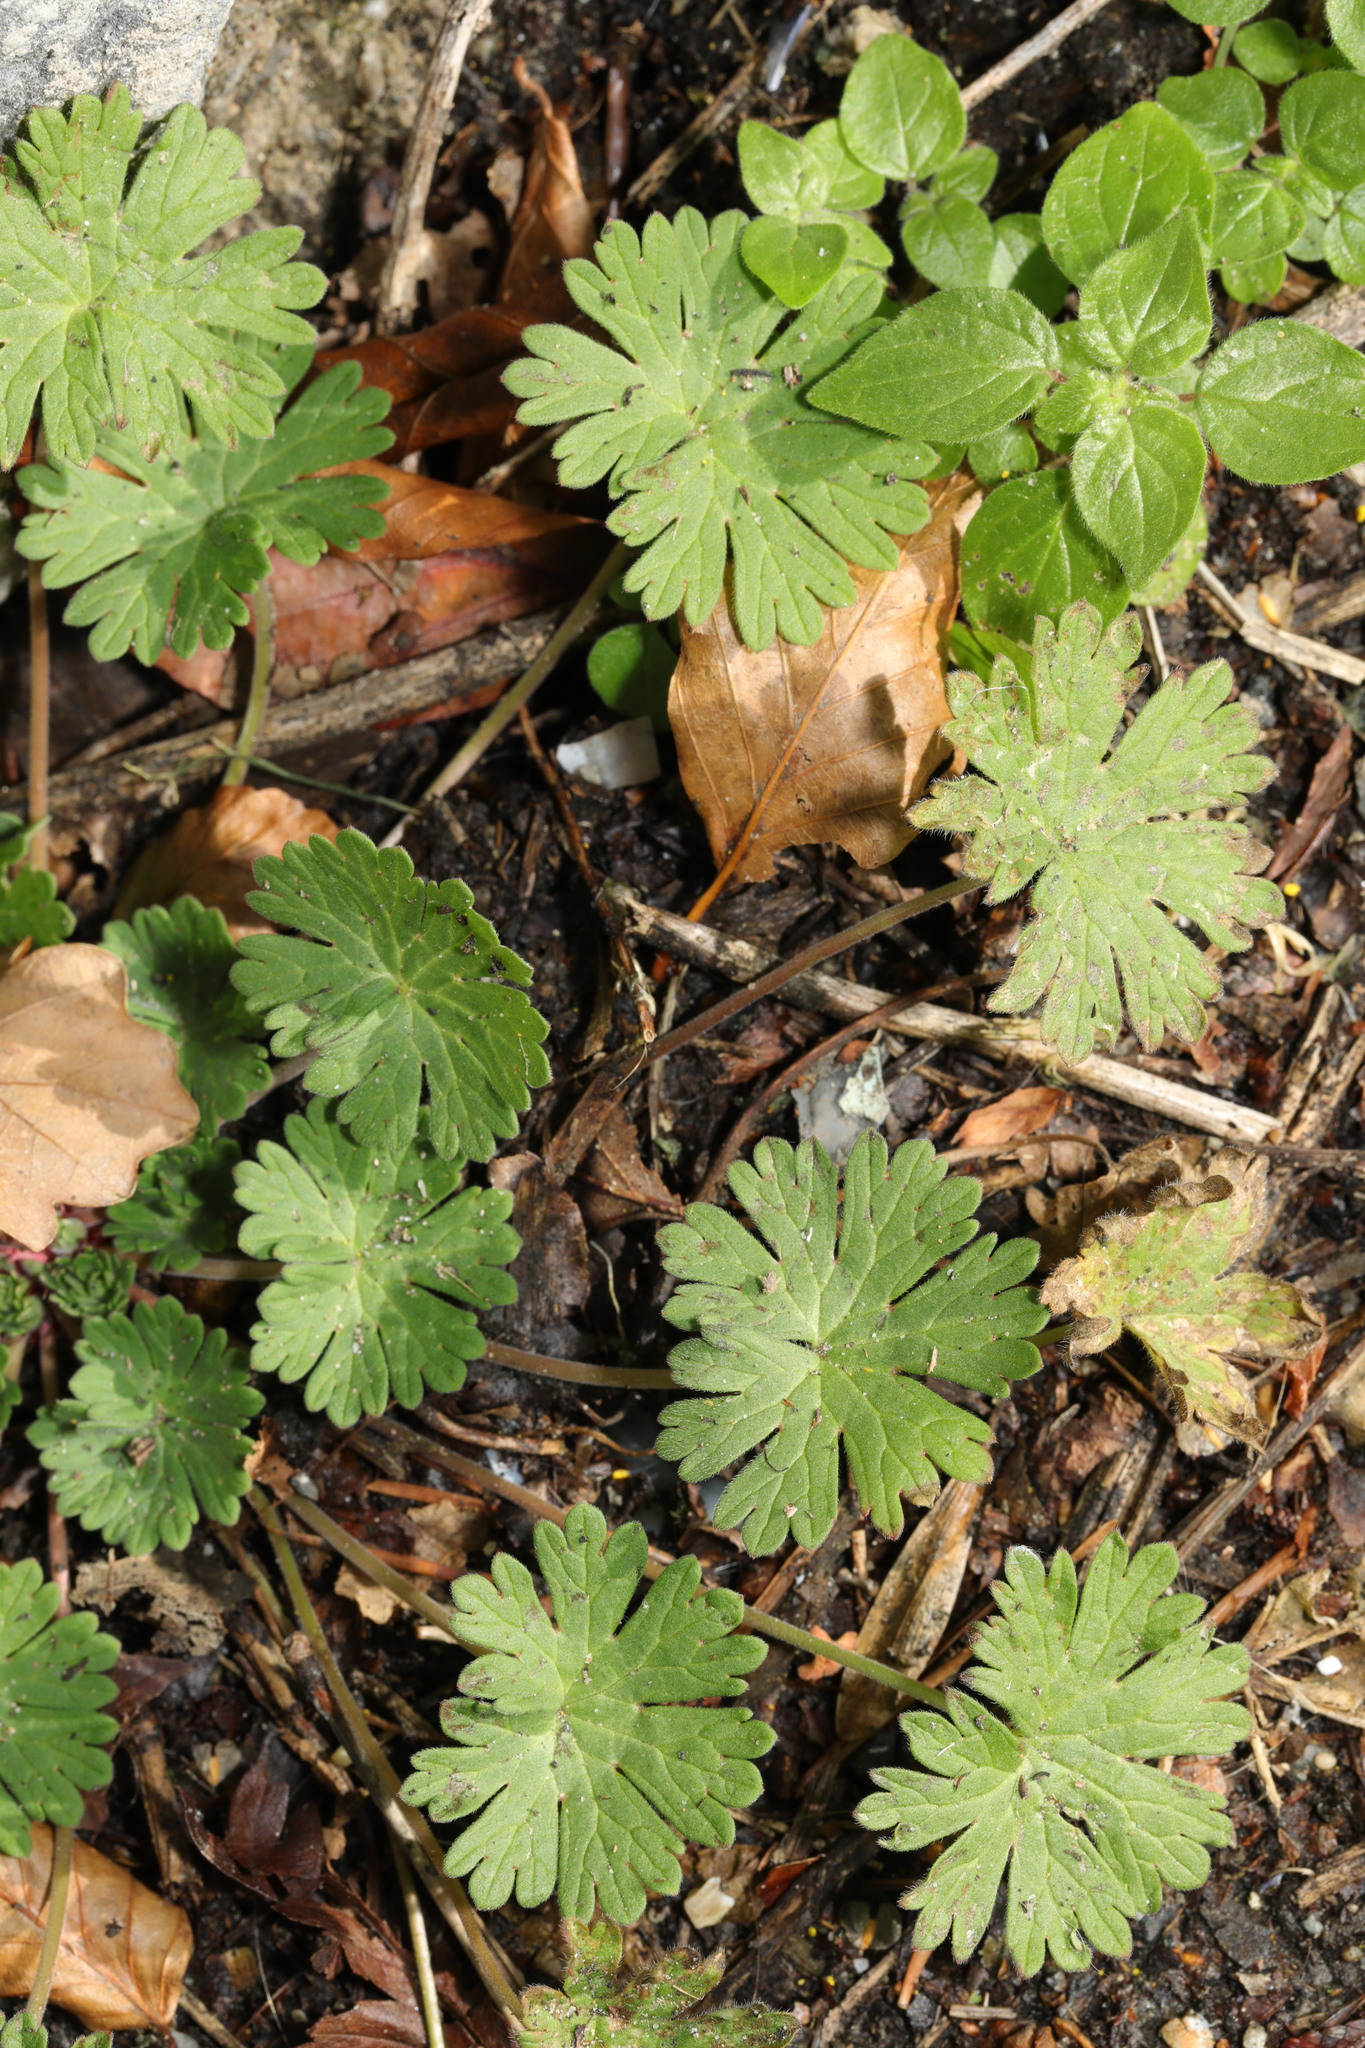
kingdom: Plantae
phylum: Tracheophyta
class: Magnoliopsida
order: Geraniales
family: Geraniaceae
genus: Geranium
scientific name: Geranium molle
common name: Dove's-foot crane's-bill
